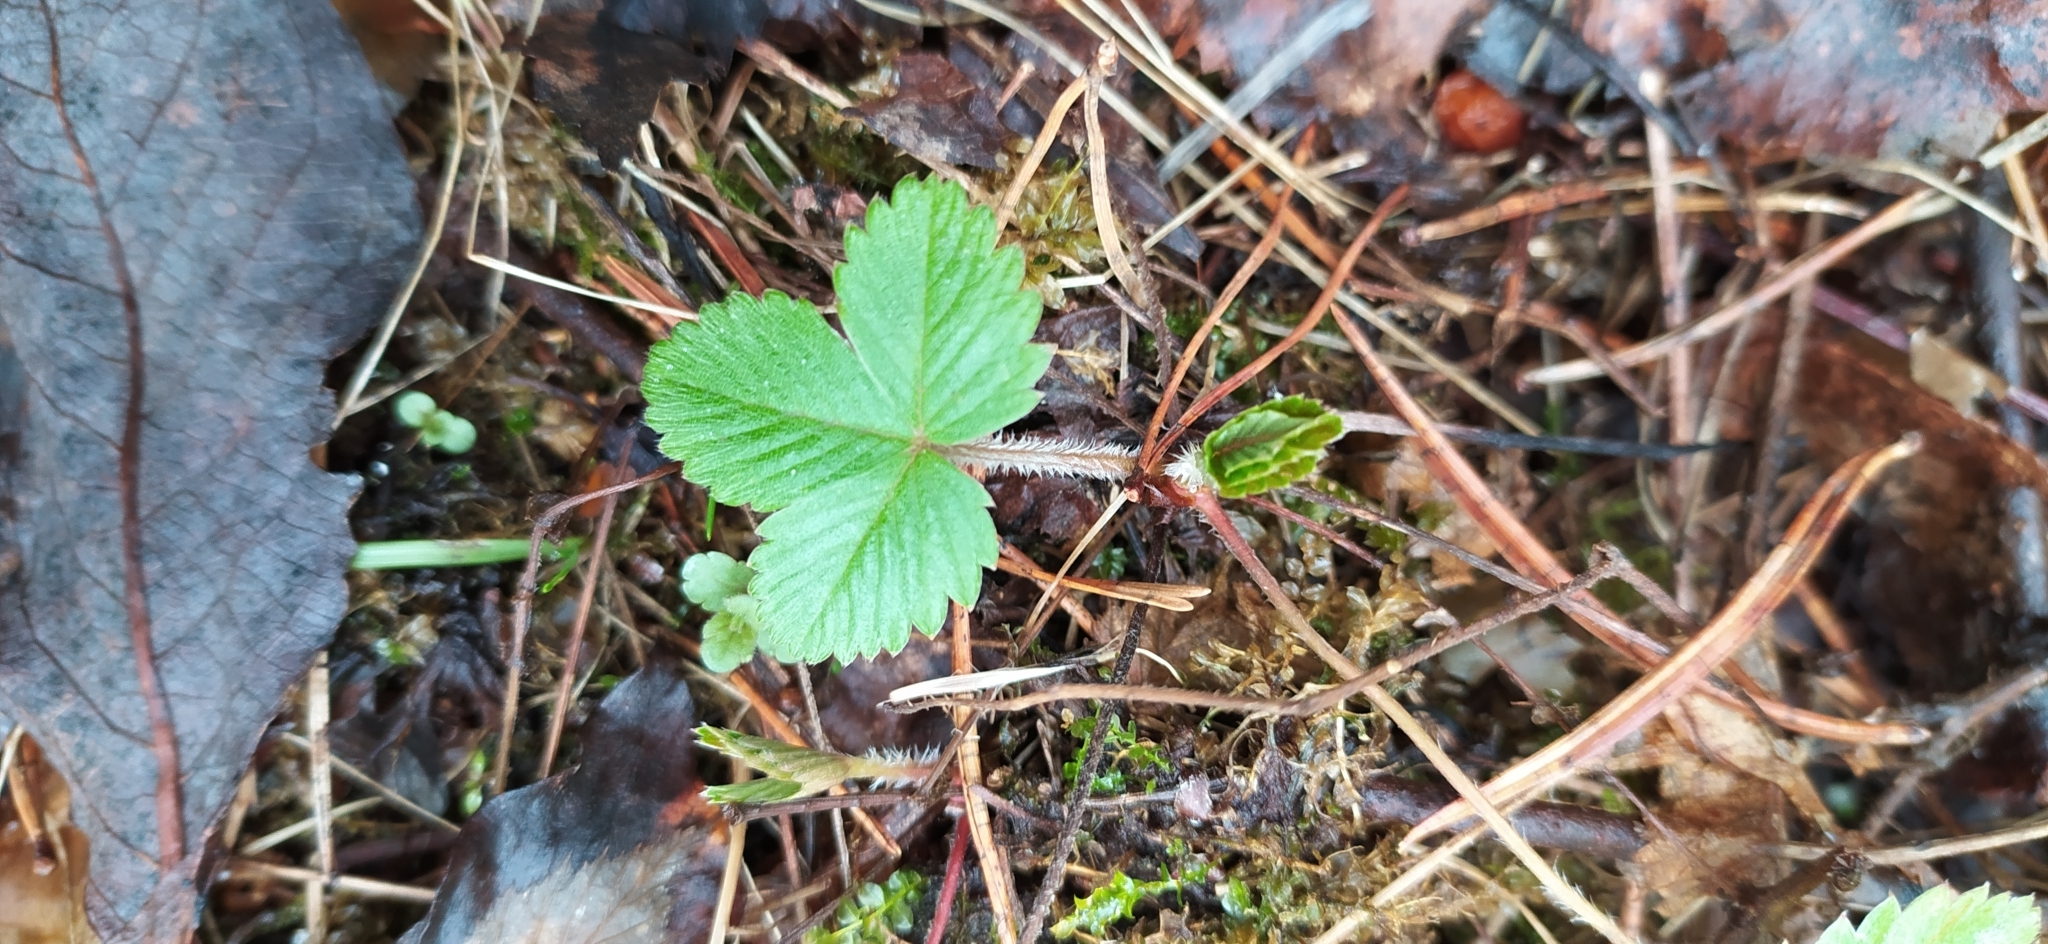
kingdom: Plantae
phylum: Tracheophyta
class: Magnoliopsida
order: Rosales
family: Rosaceae
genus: Fragaria
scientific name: Fragaria vesca
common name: Wild strawberry
